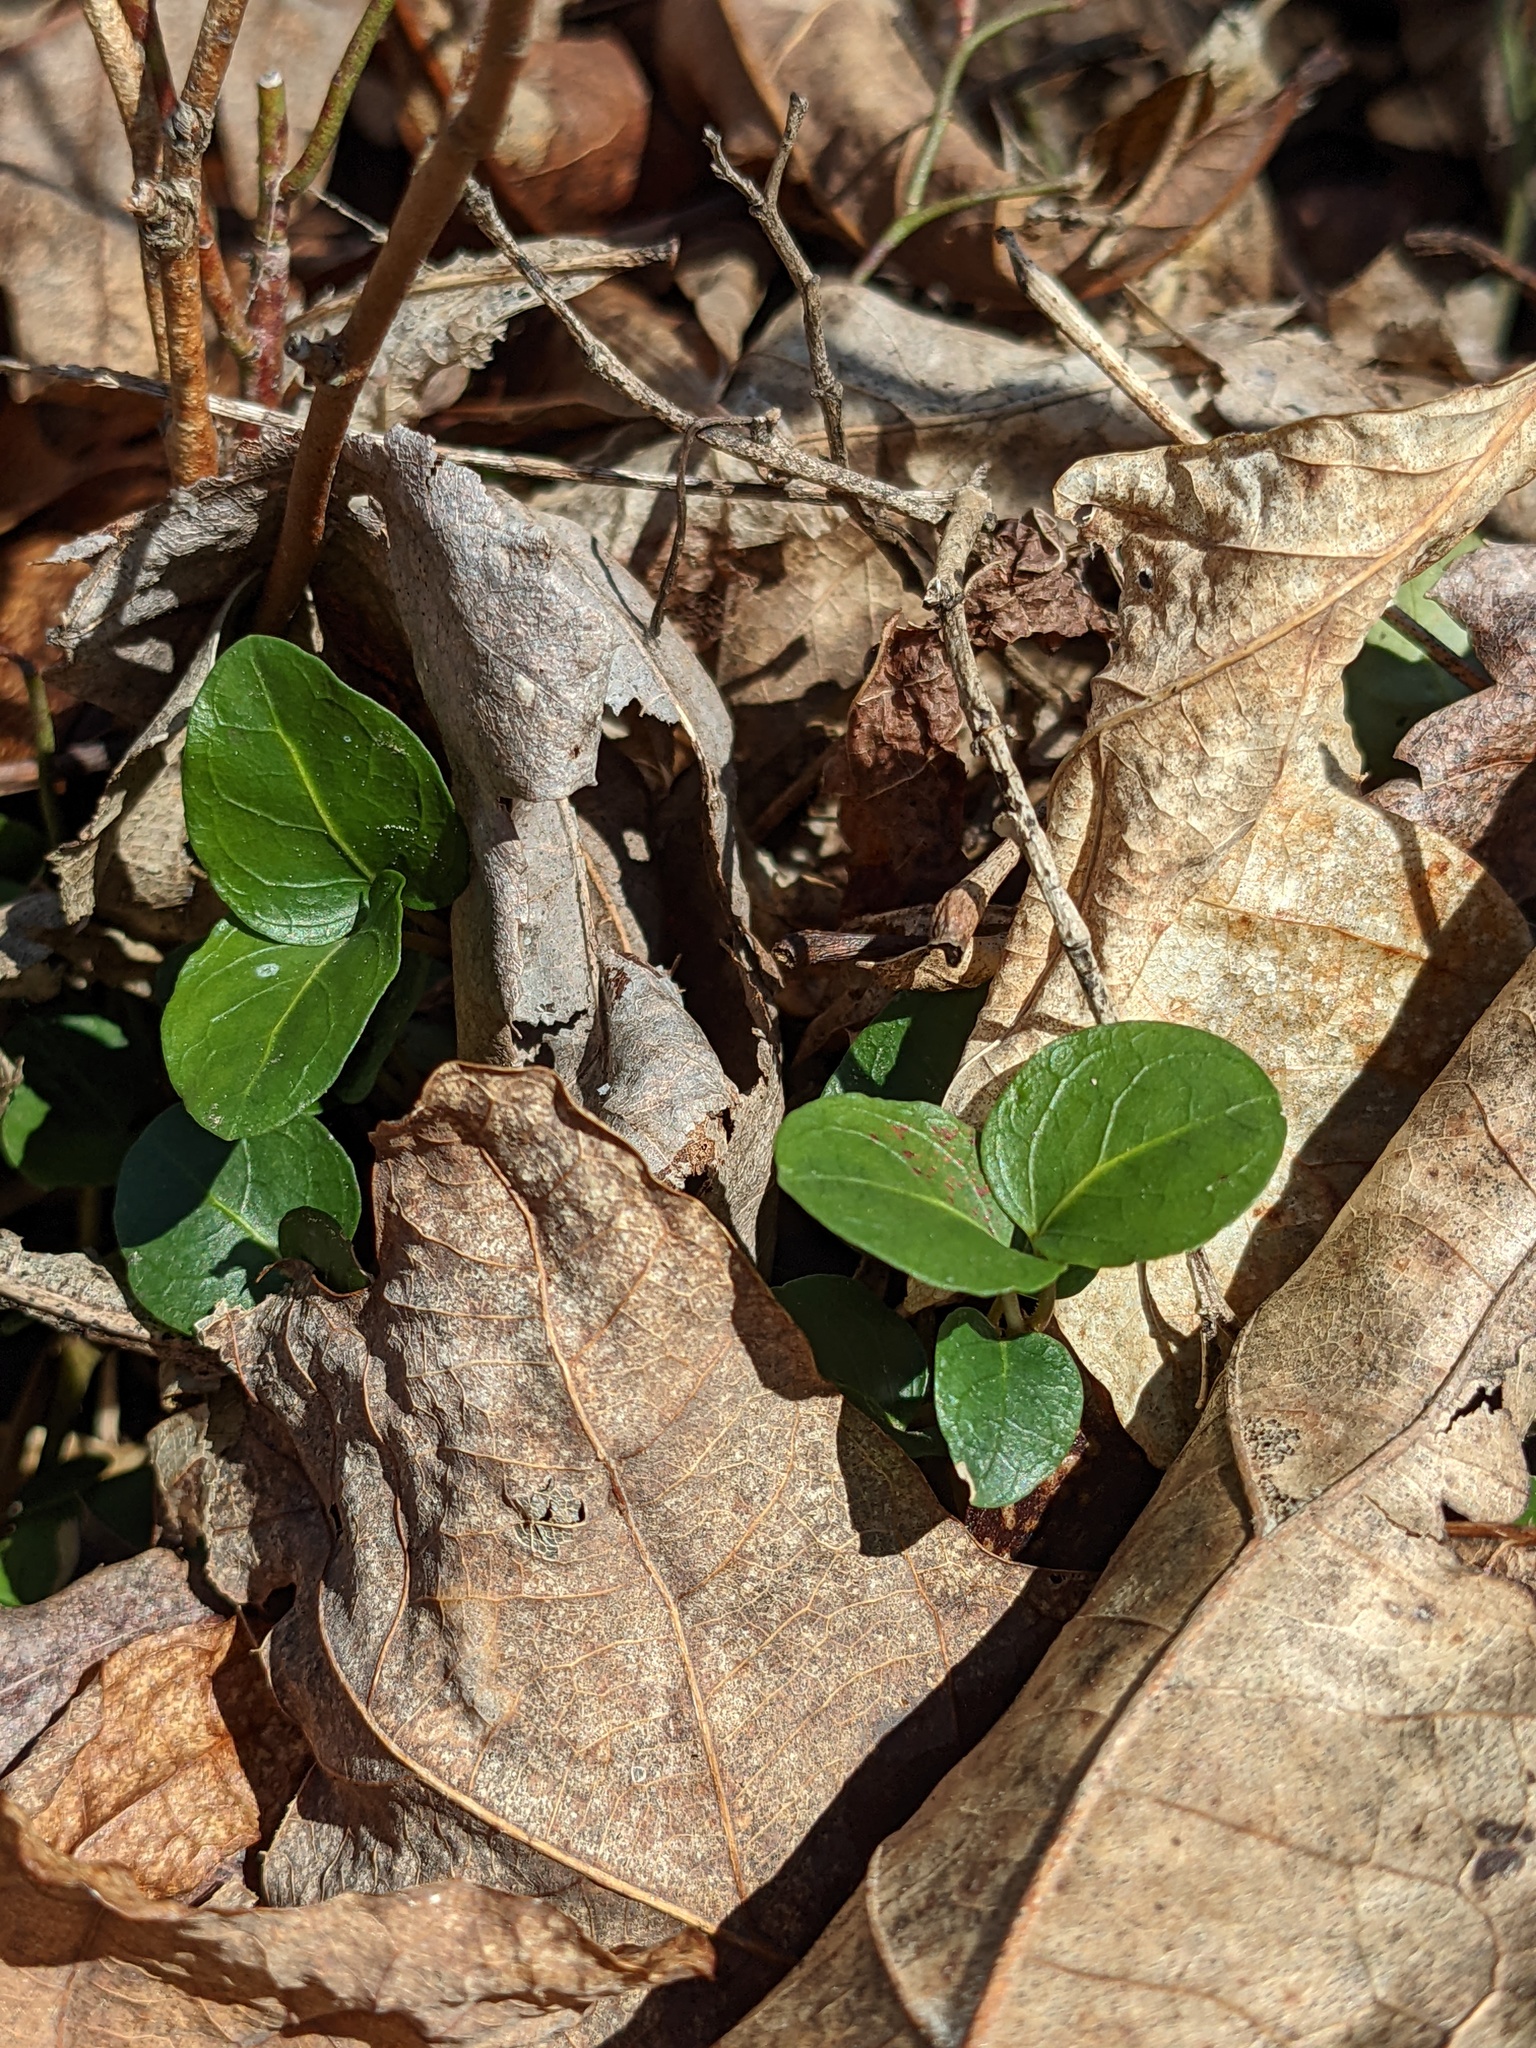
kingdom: Plantae
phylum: Tracheophyta
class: Magnoliopsida
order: Gentianales
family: Rubiaceae
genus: Mitchella
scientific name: Mitchella repens
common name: Partridge-berry
